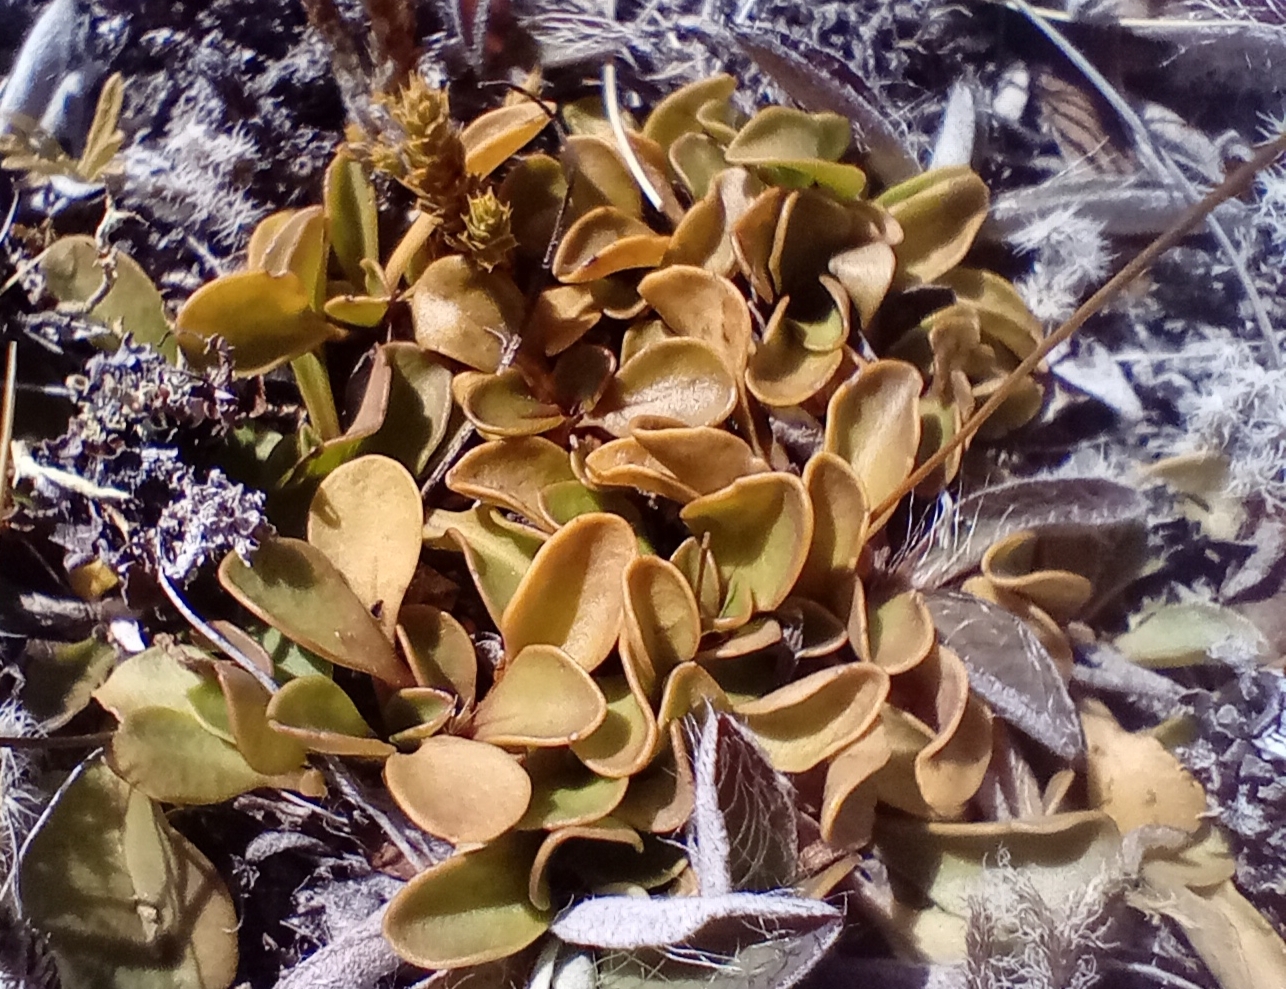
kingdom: Plantae
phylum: Tracheophyta
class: Magnoliopsida
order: Asterales
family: Asteraceae
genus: Brachyscome
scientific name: Brachyscome longiscapa
